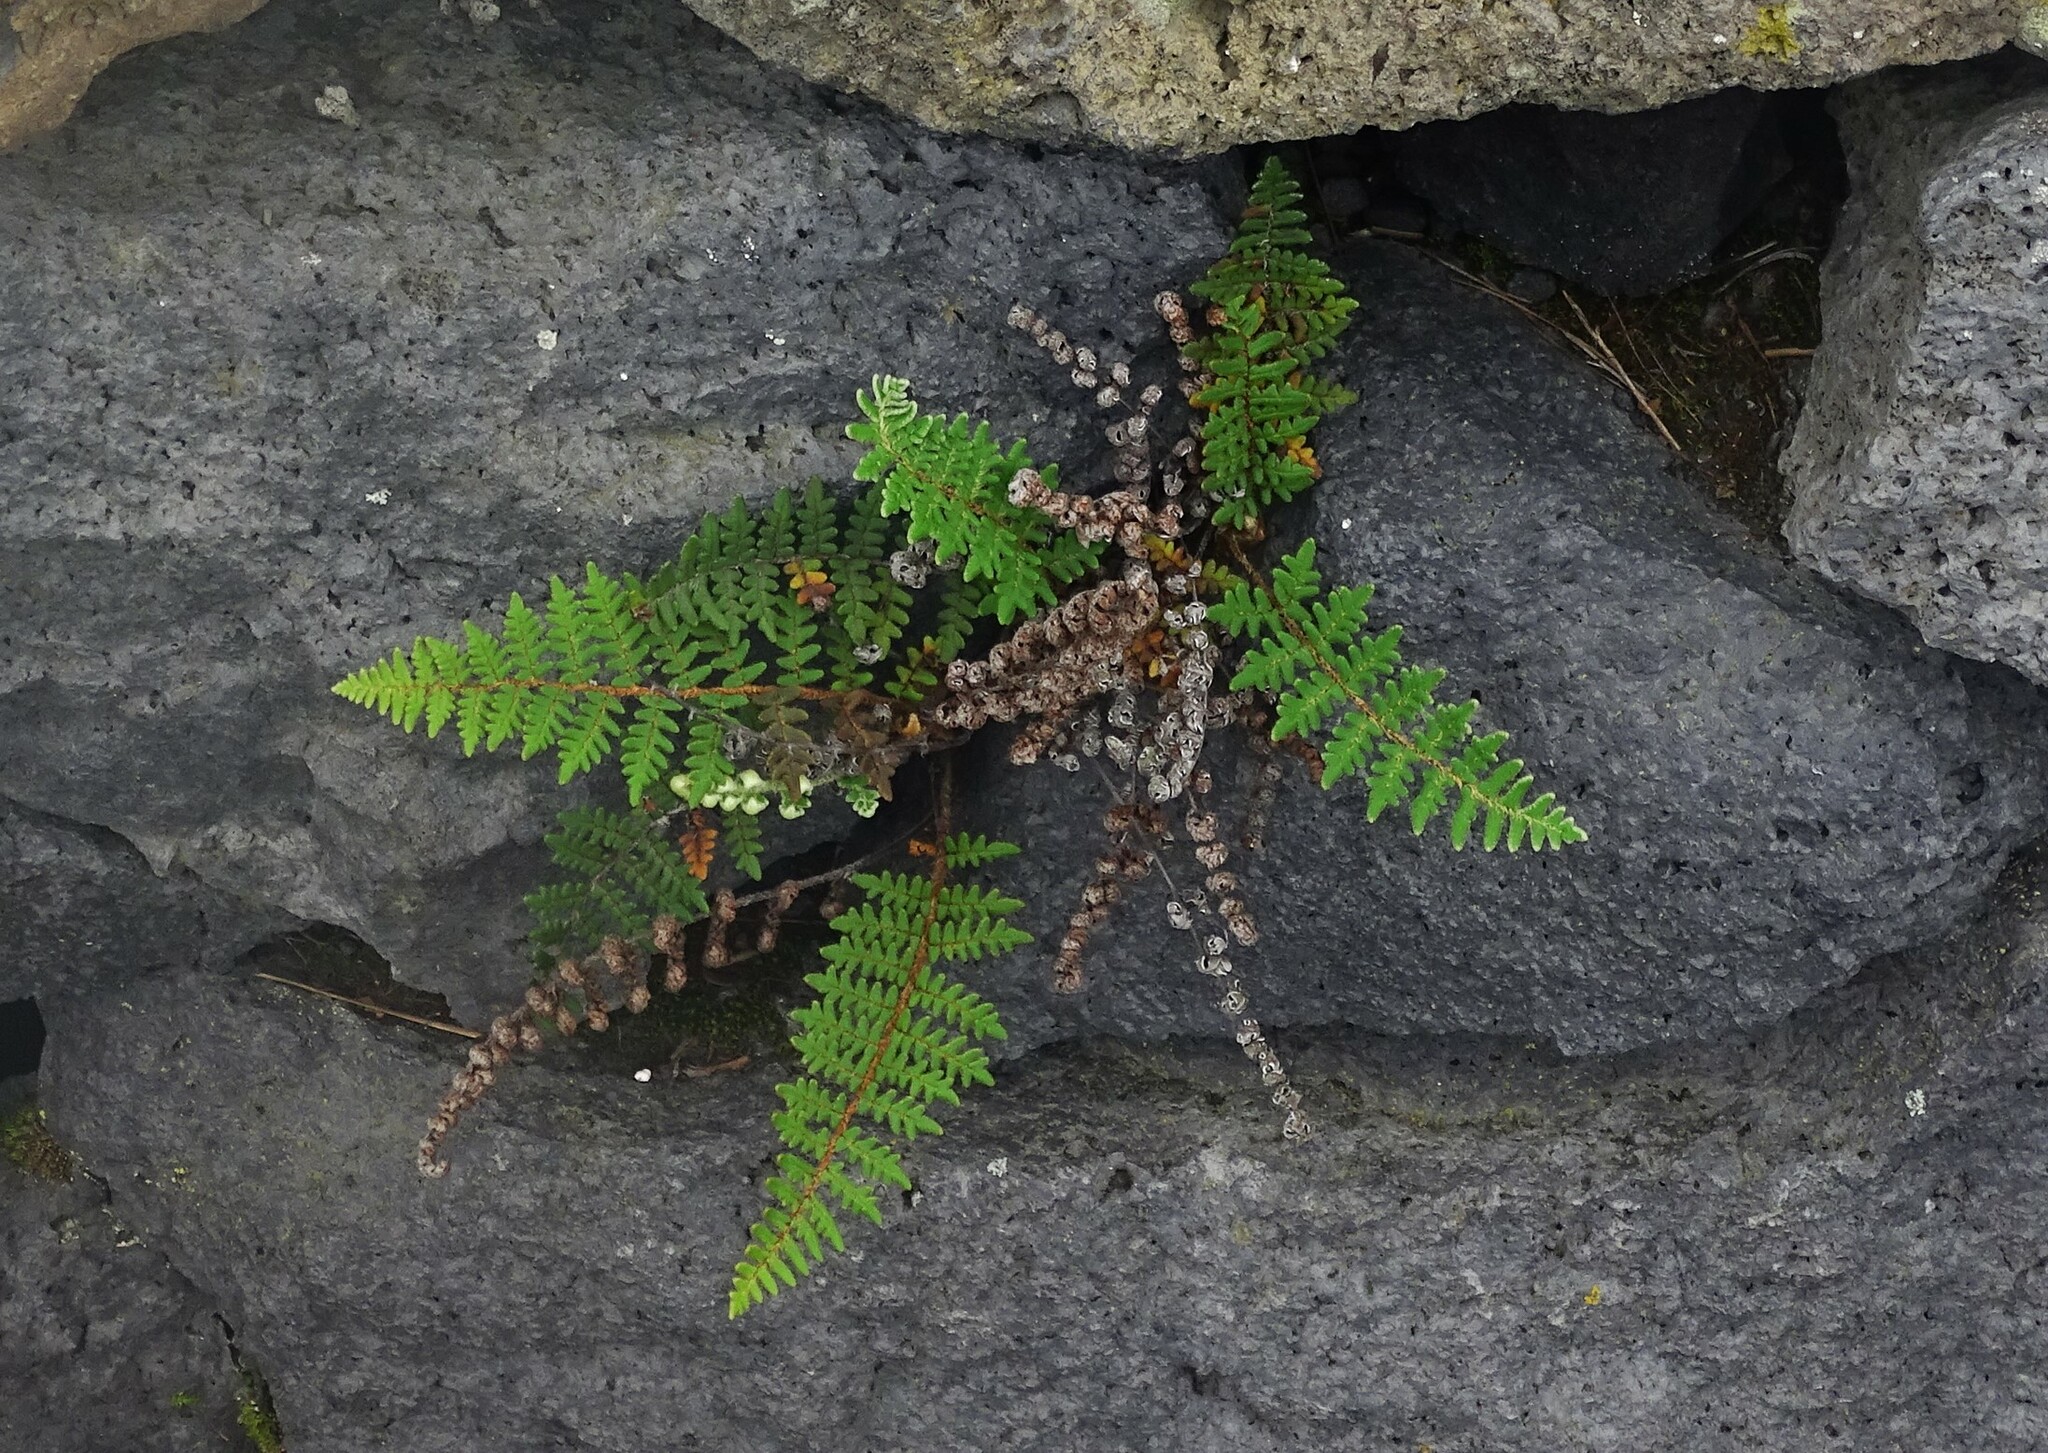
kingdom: Plantae
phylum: Tracheophyta
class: Polypodiopsida
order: Polypodiales
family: Pteridaceae
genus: Paragymnopteris
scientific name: Paragymnopteris marantae
